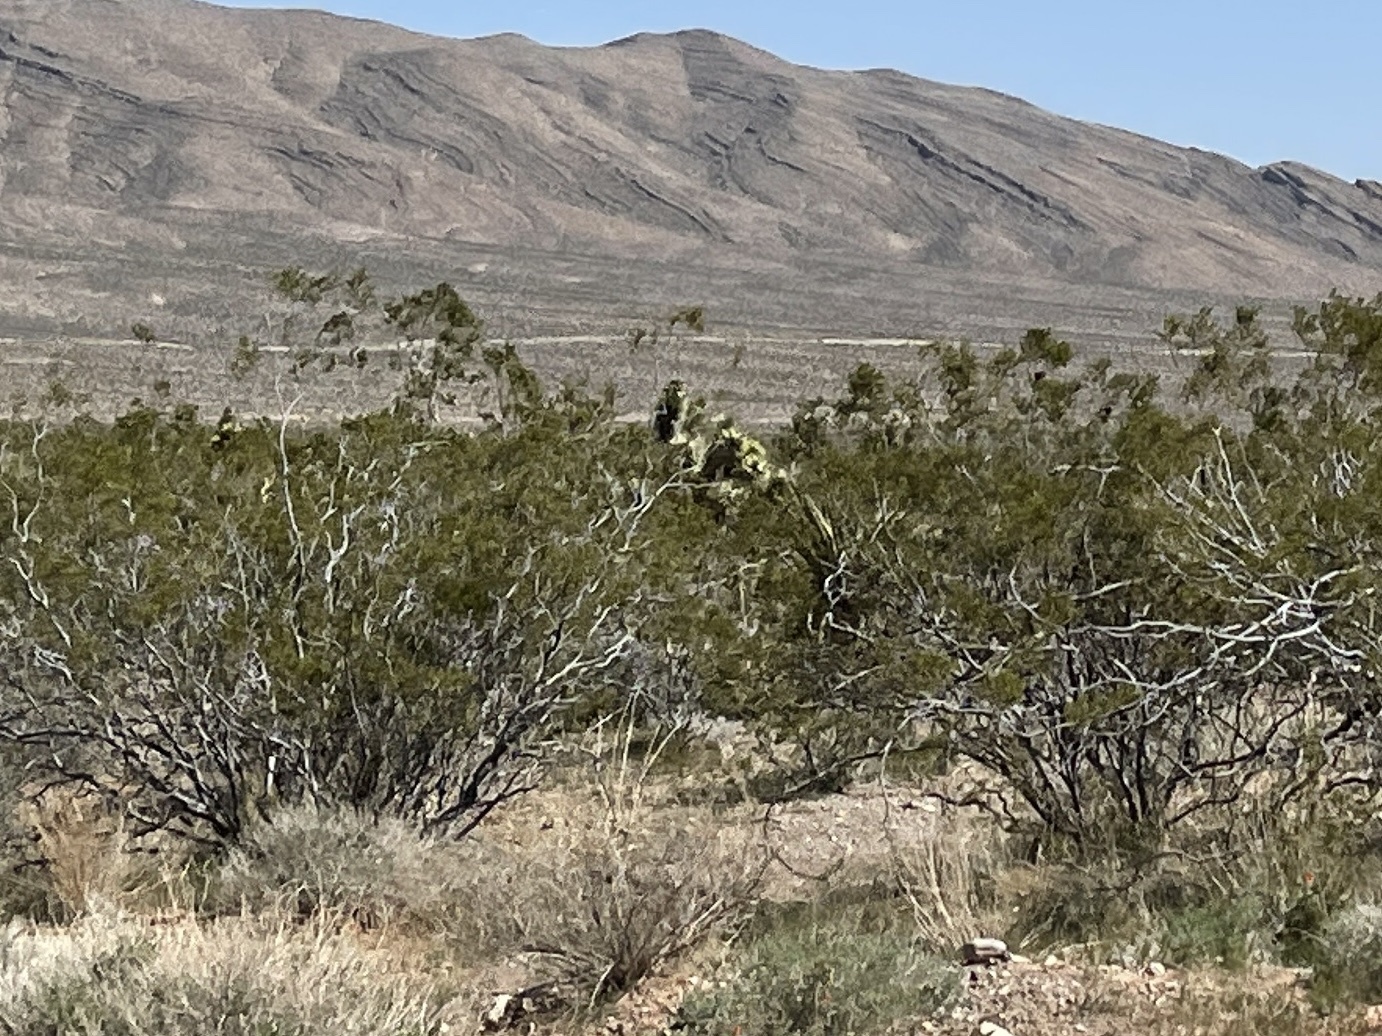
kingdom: Plantae
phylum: Tracheophyta
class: Magnoliopsida
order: Zygophyllales
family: Zygophyllaceae
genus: Larrea
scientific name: Larrea tridentata
